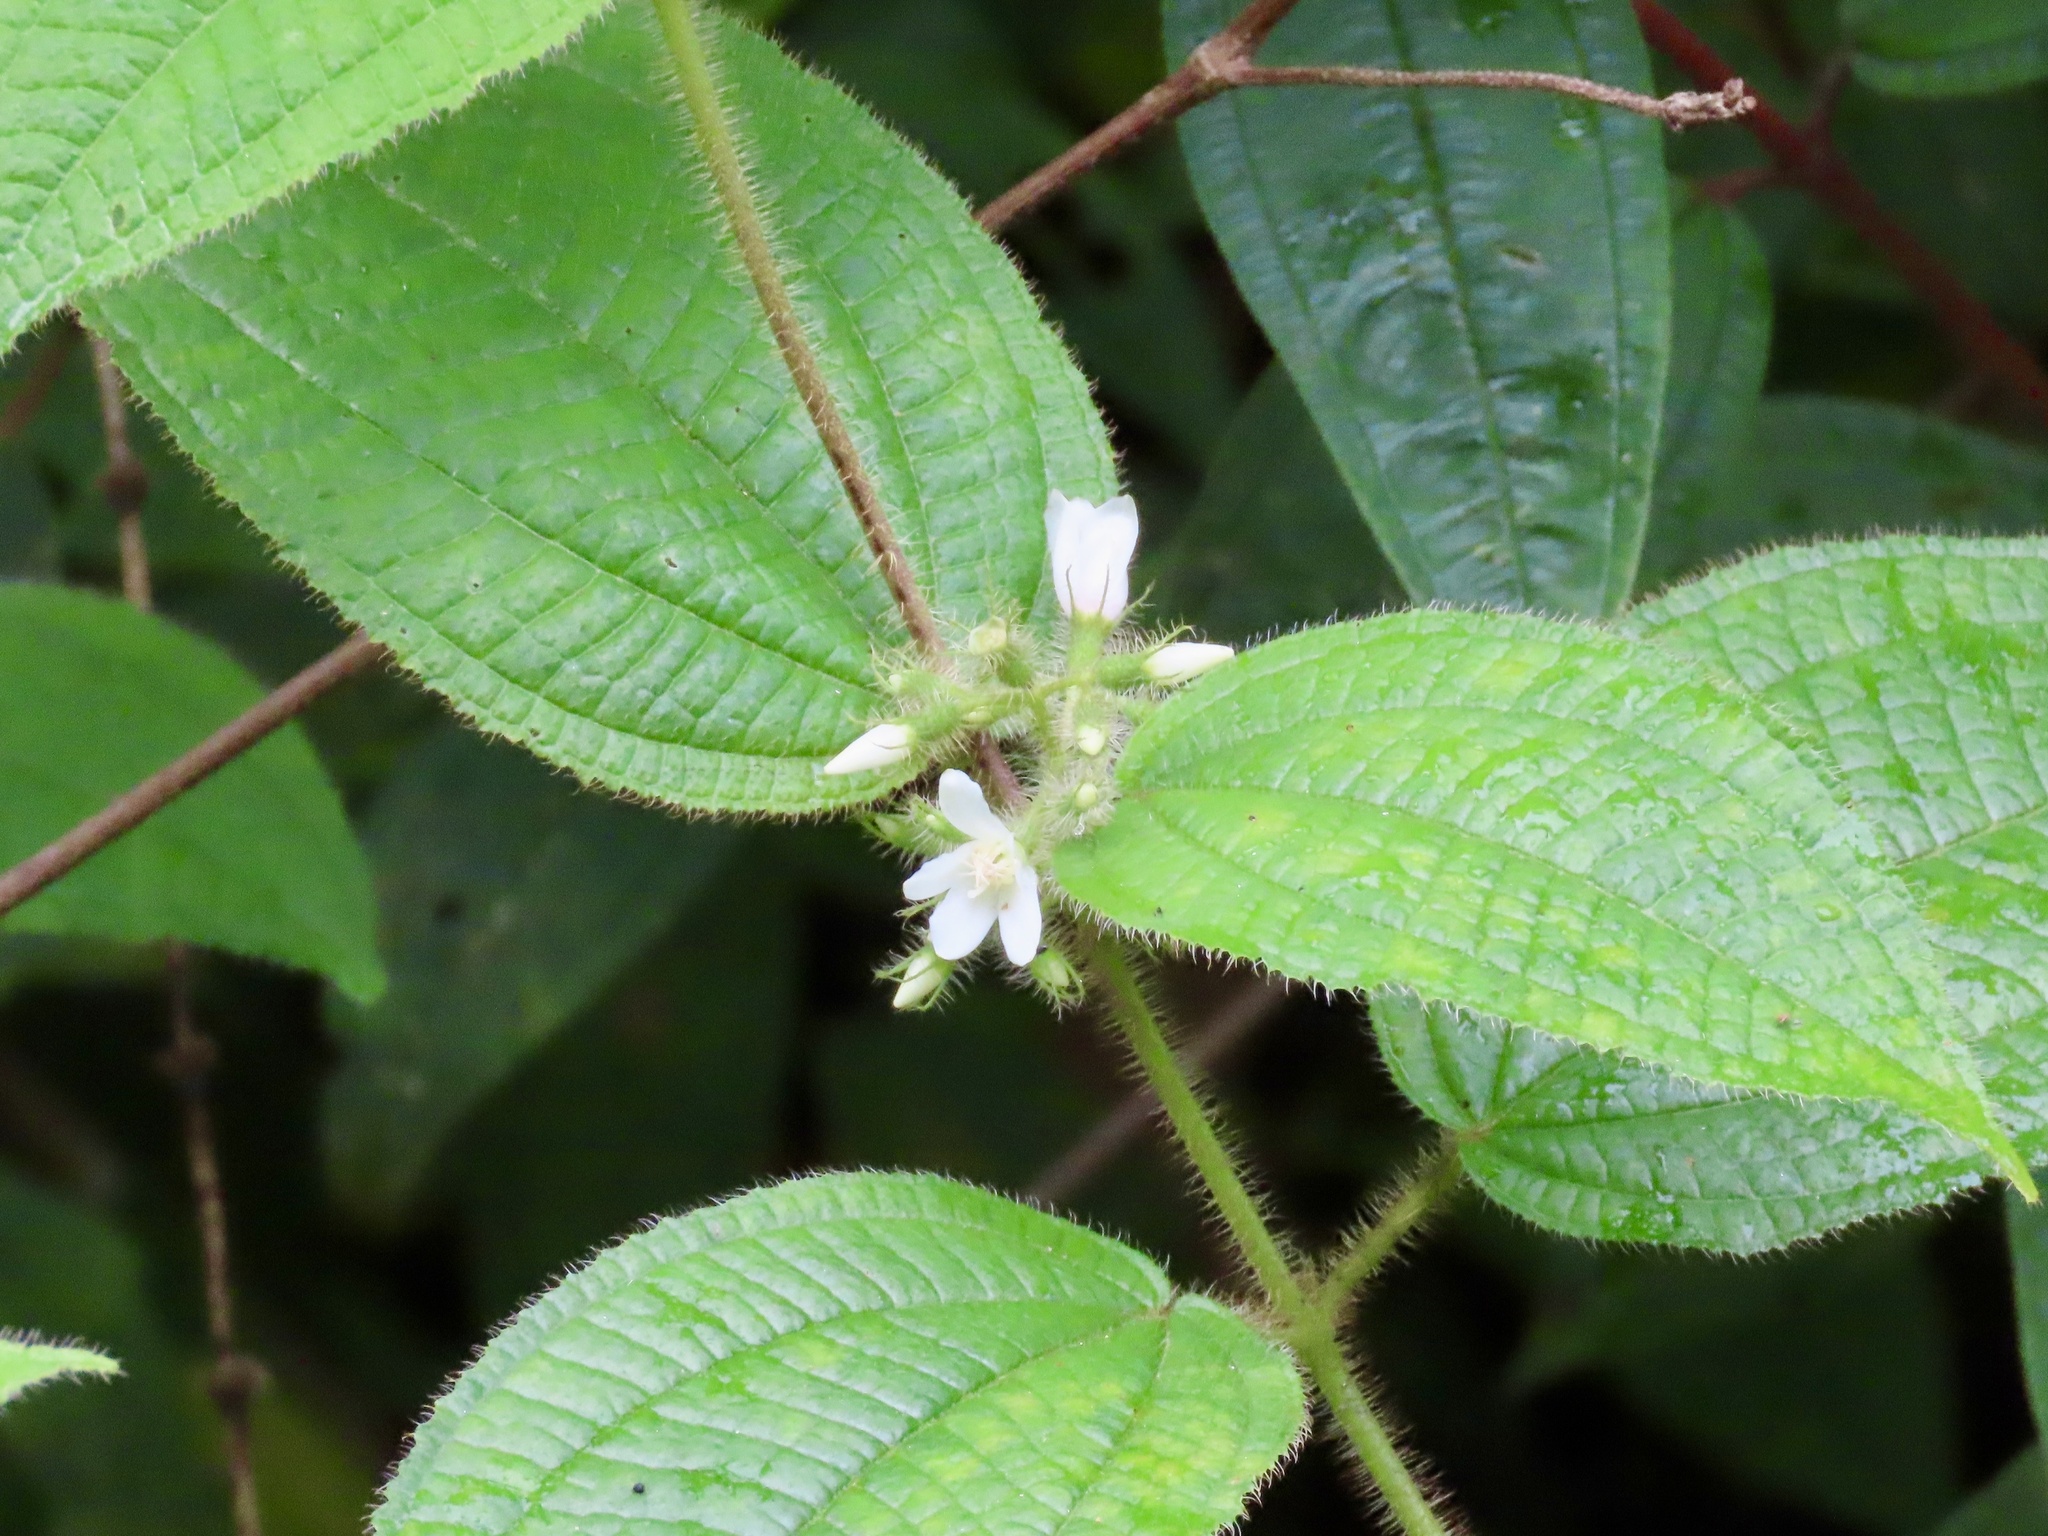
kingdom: Plantae
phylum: Tracheophyta
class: Magnoliopsida
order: Myrtales
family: Melastomataceae
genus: Miconia
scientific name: Miconia crenata
